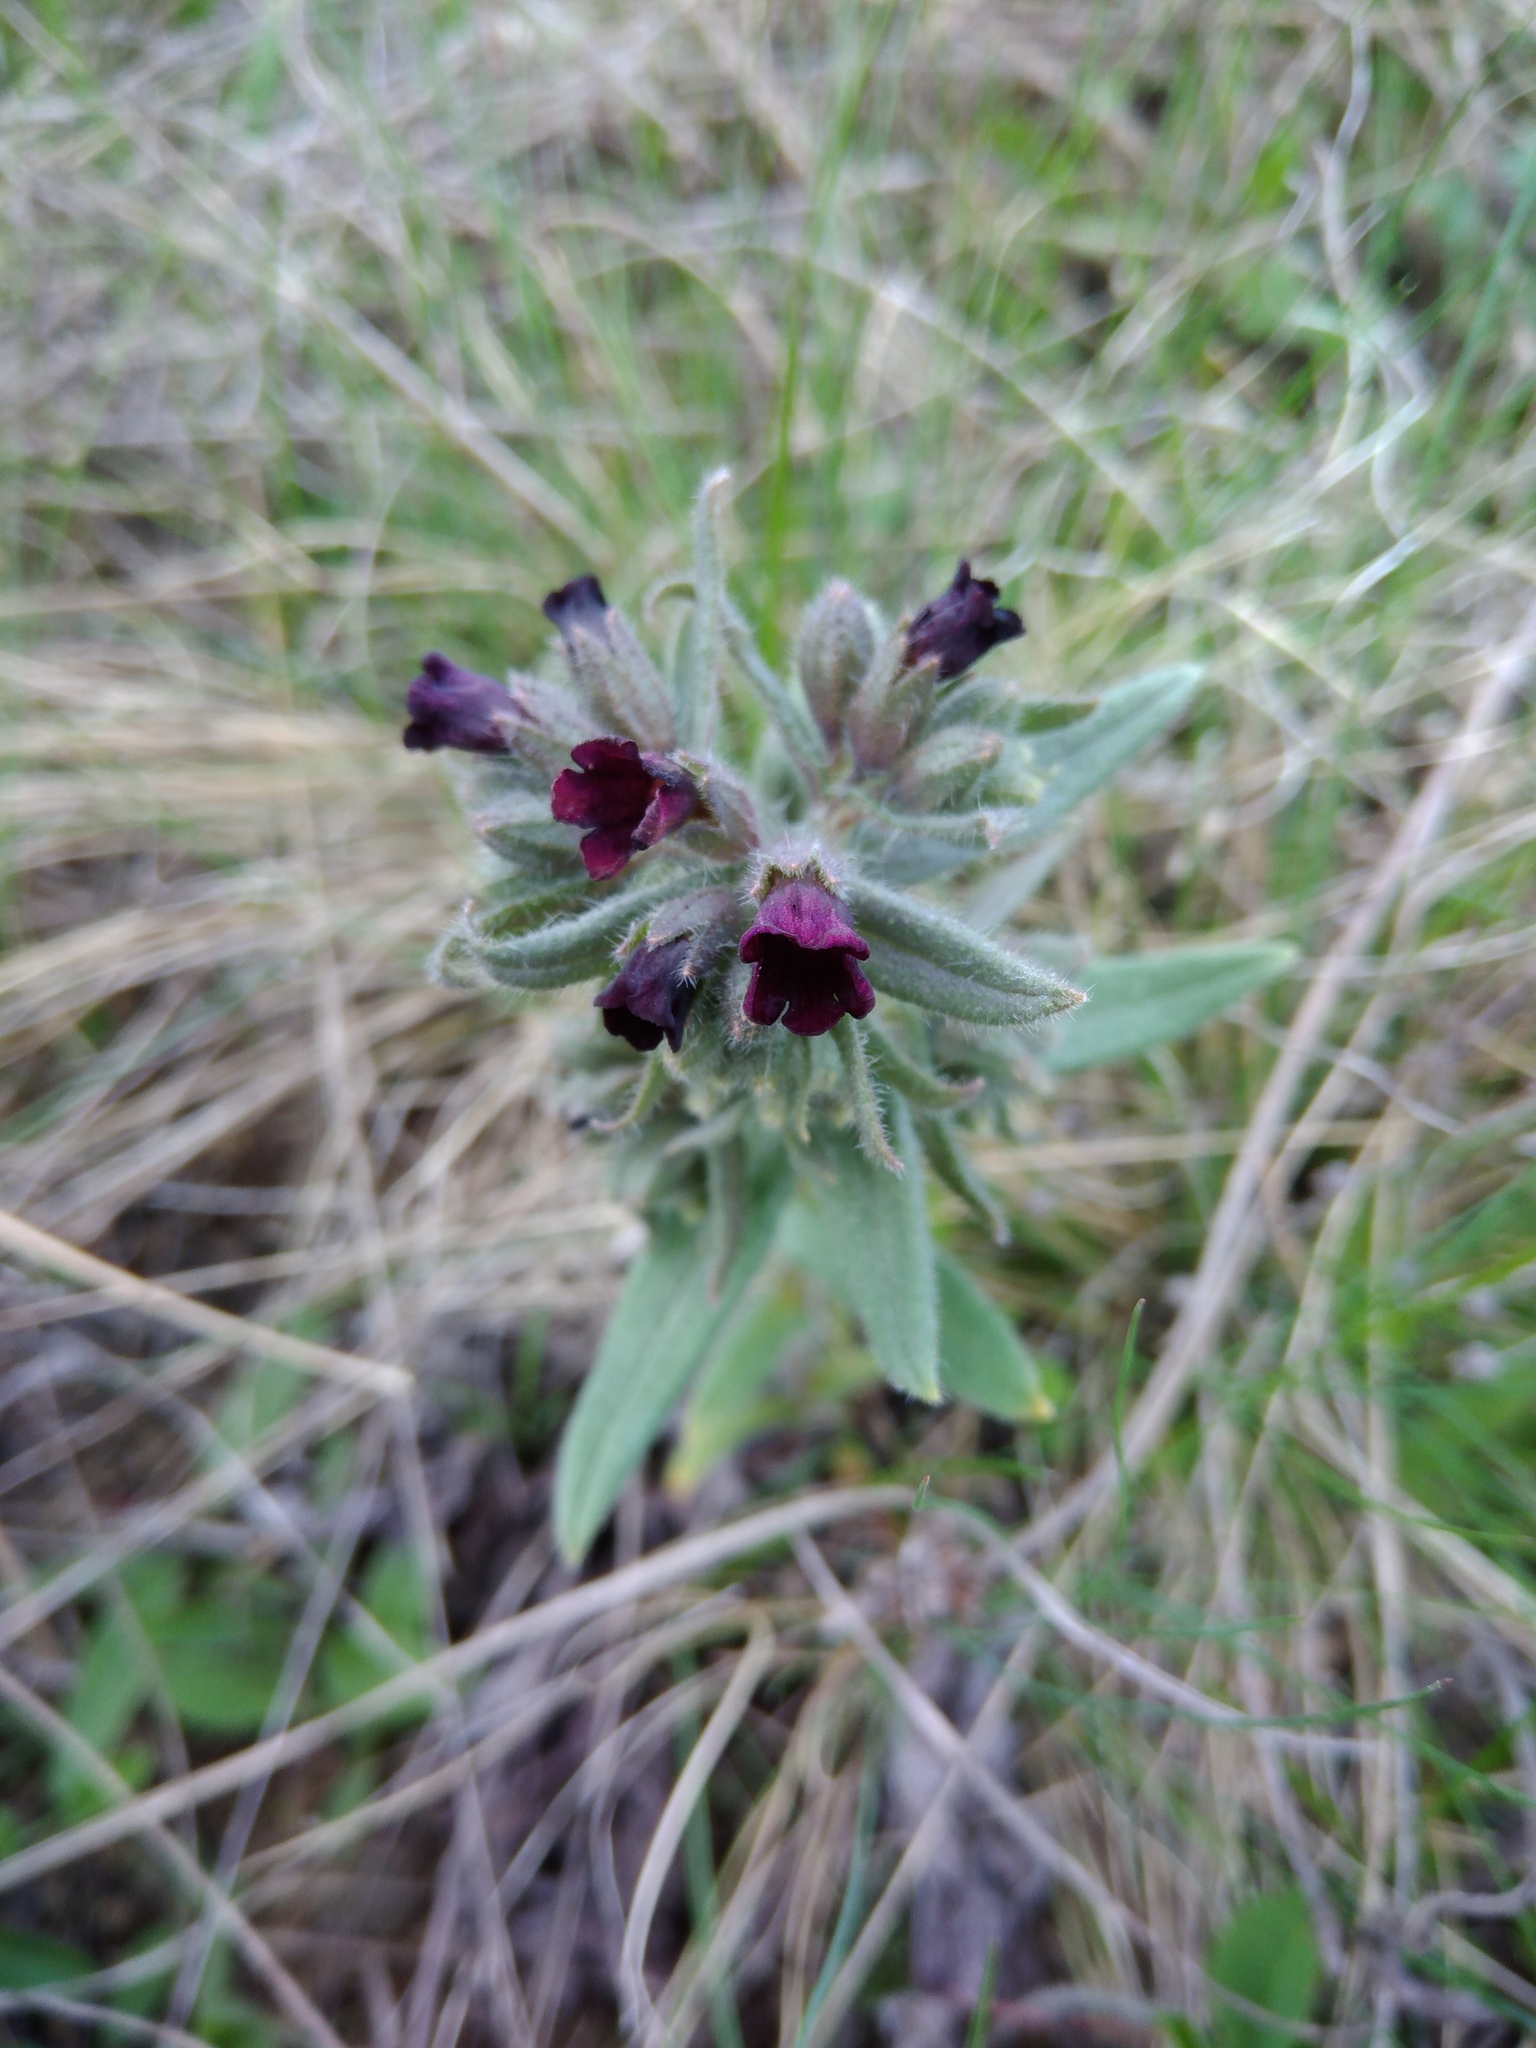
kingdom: Plantae
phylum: Tracheophyta
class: Magnoliopsida
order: Boraginales
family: Boraginaceae
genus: Nonea
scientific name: Nonea pulla
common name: Brown nonea
